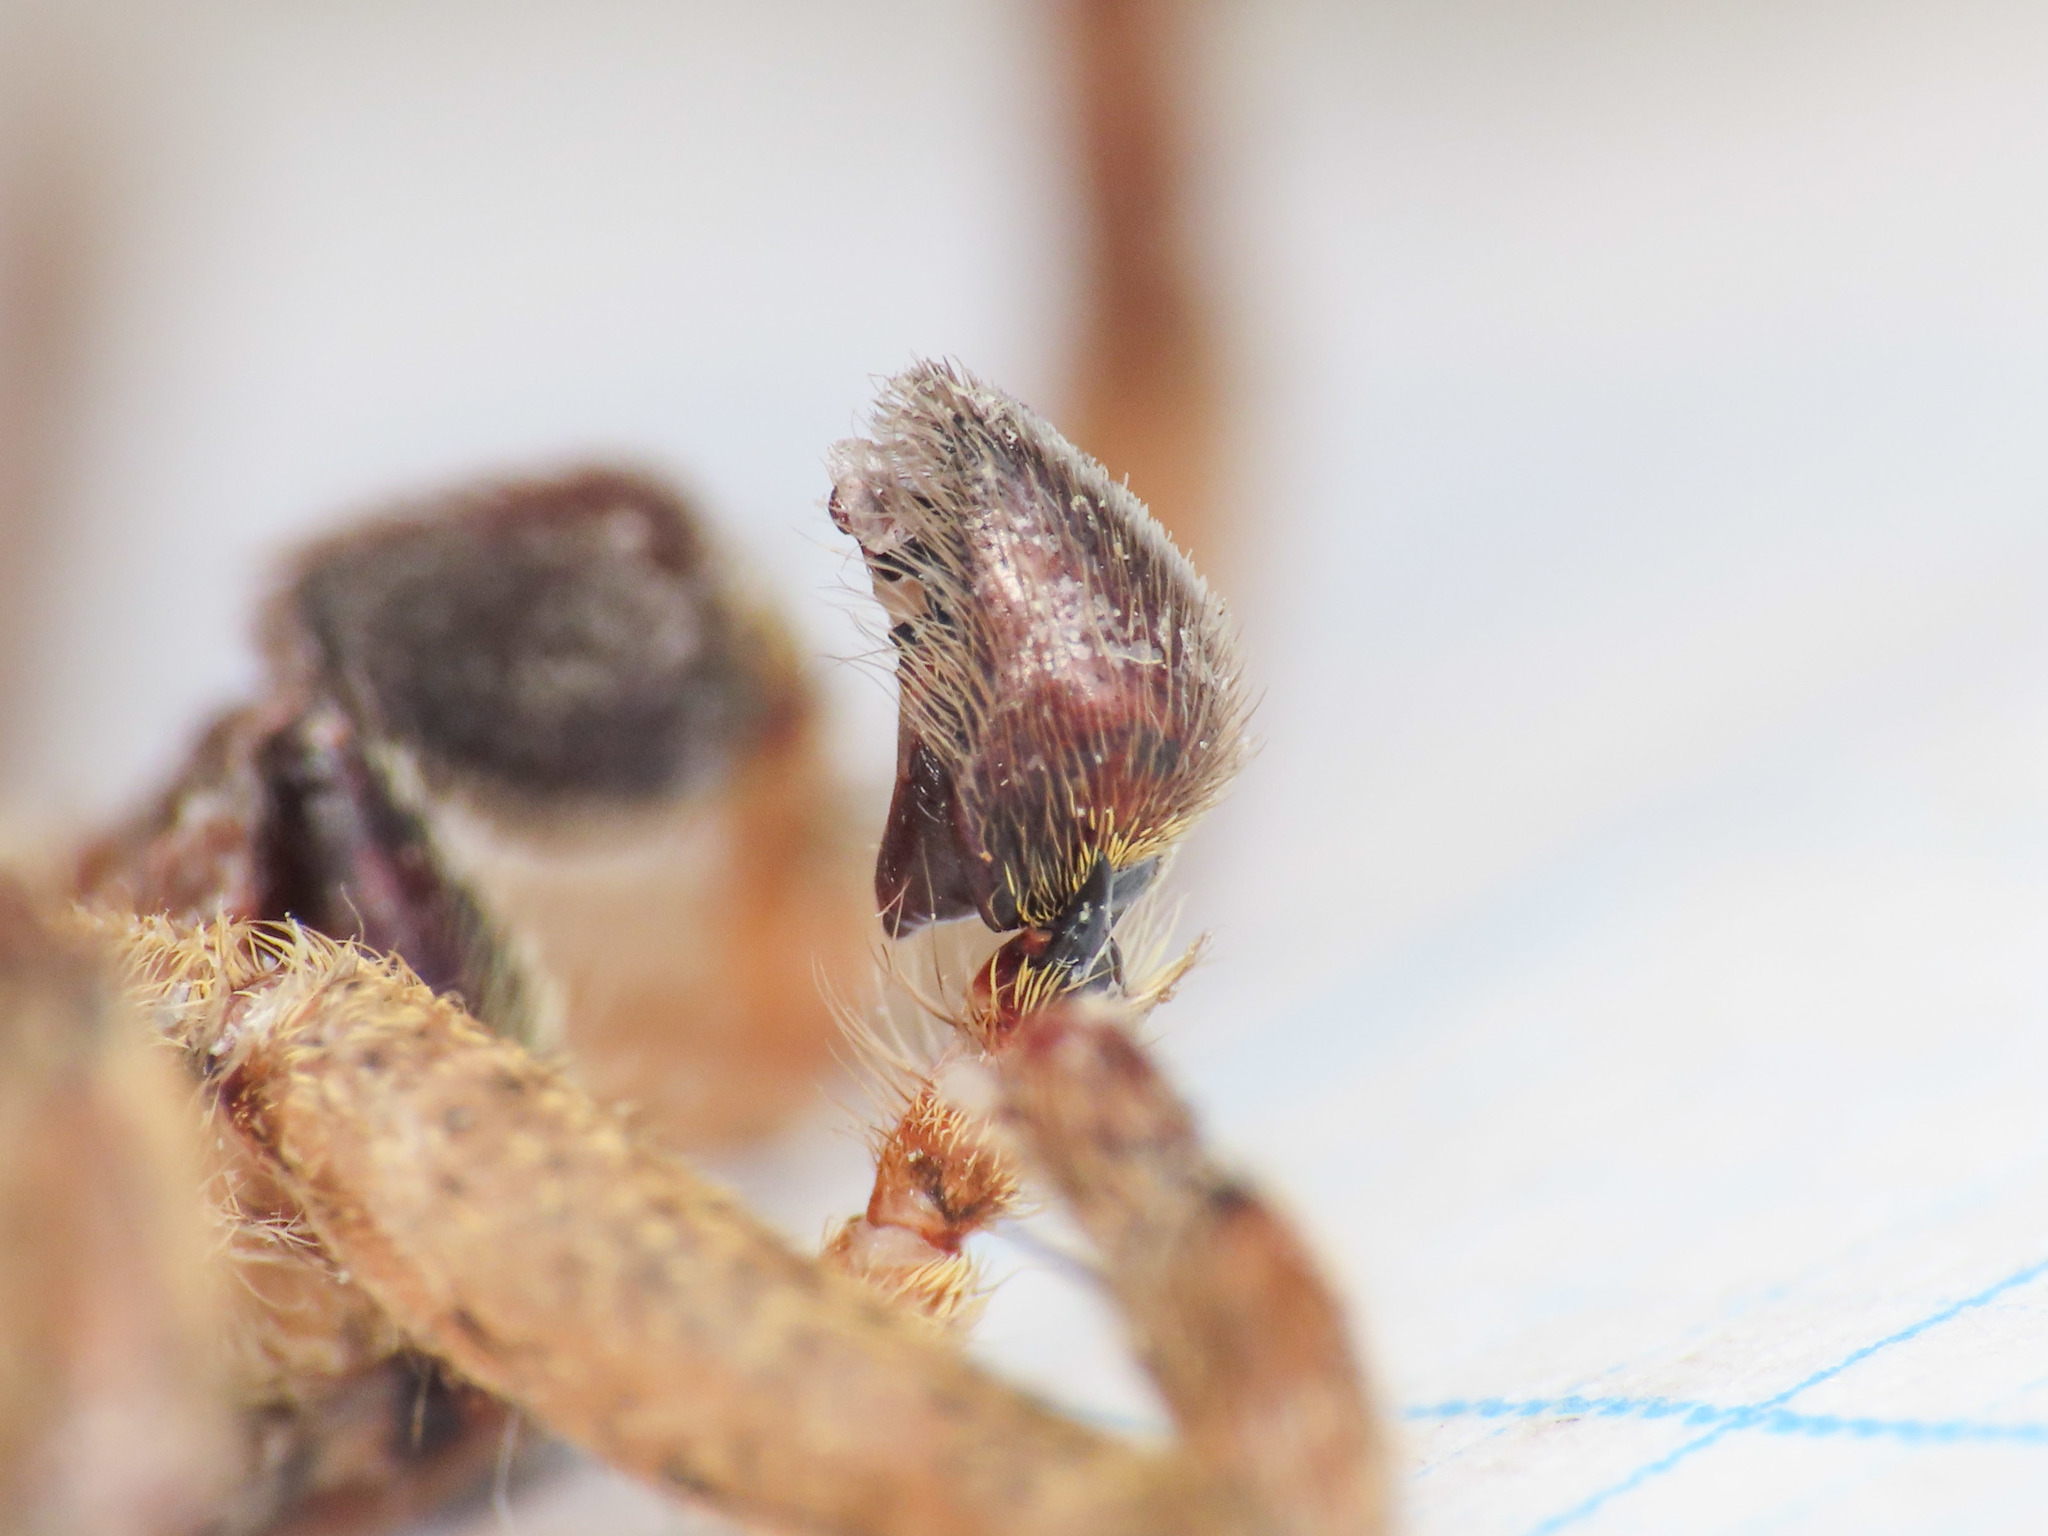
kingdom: Animalia
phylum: Arthropoda
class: Arachnida
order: Araneae
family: Zoropsidae
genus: Zoropsis
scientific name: Zoropsis spinimana
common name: Zoropsid spider
